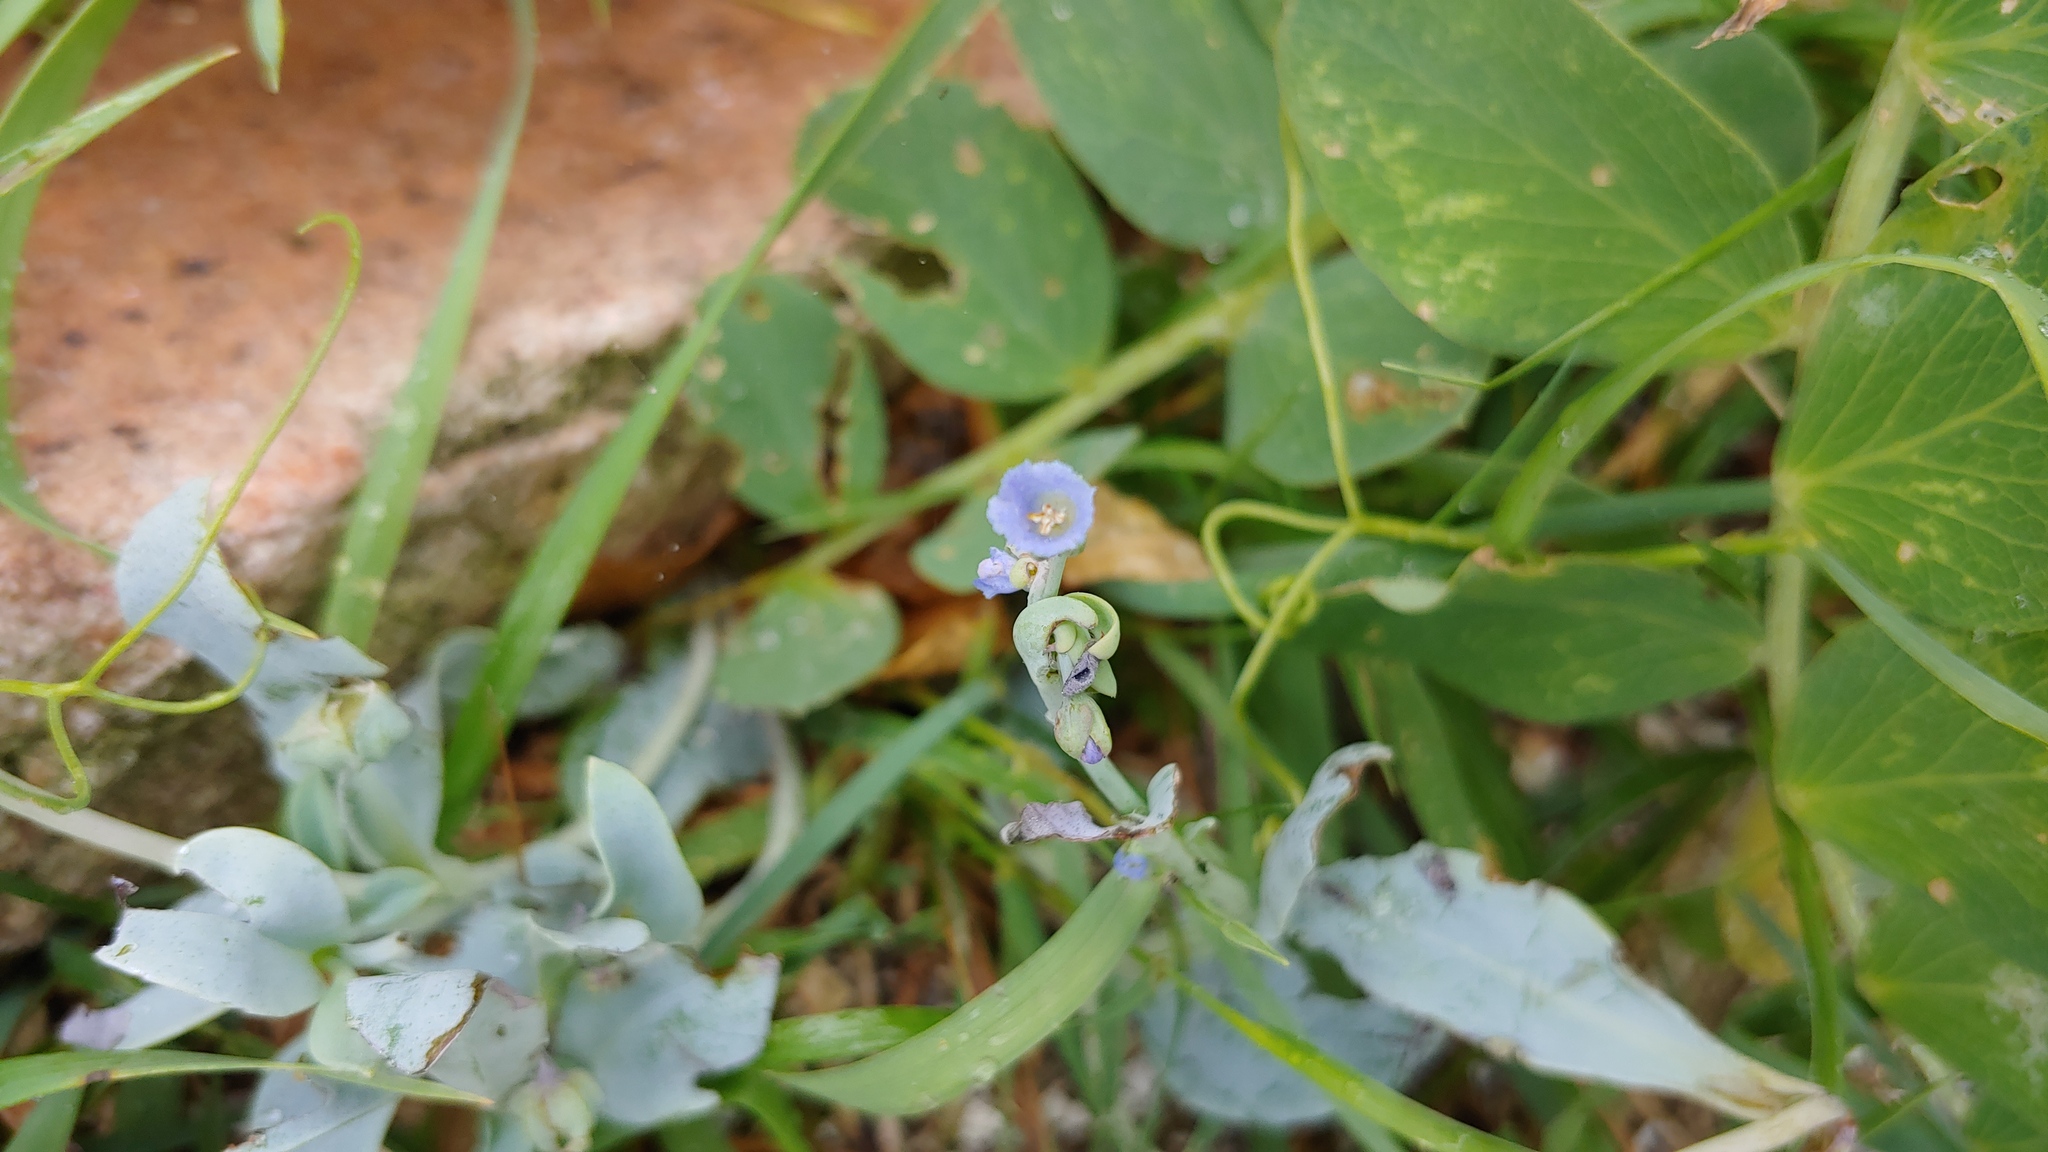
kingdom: Plantae
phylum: Tracheophyta
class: Magnoliopsida
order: Boraginales
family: Boraginaceae
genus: Mertensia
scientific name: Mertensia maritima
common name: Oysterplant
